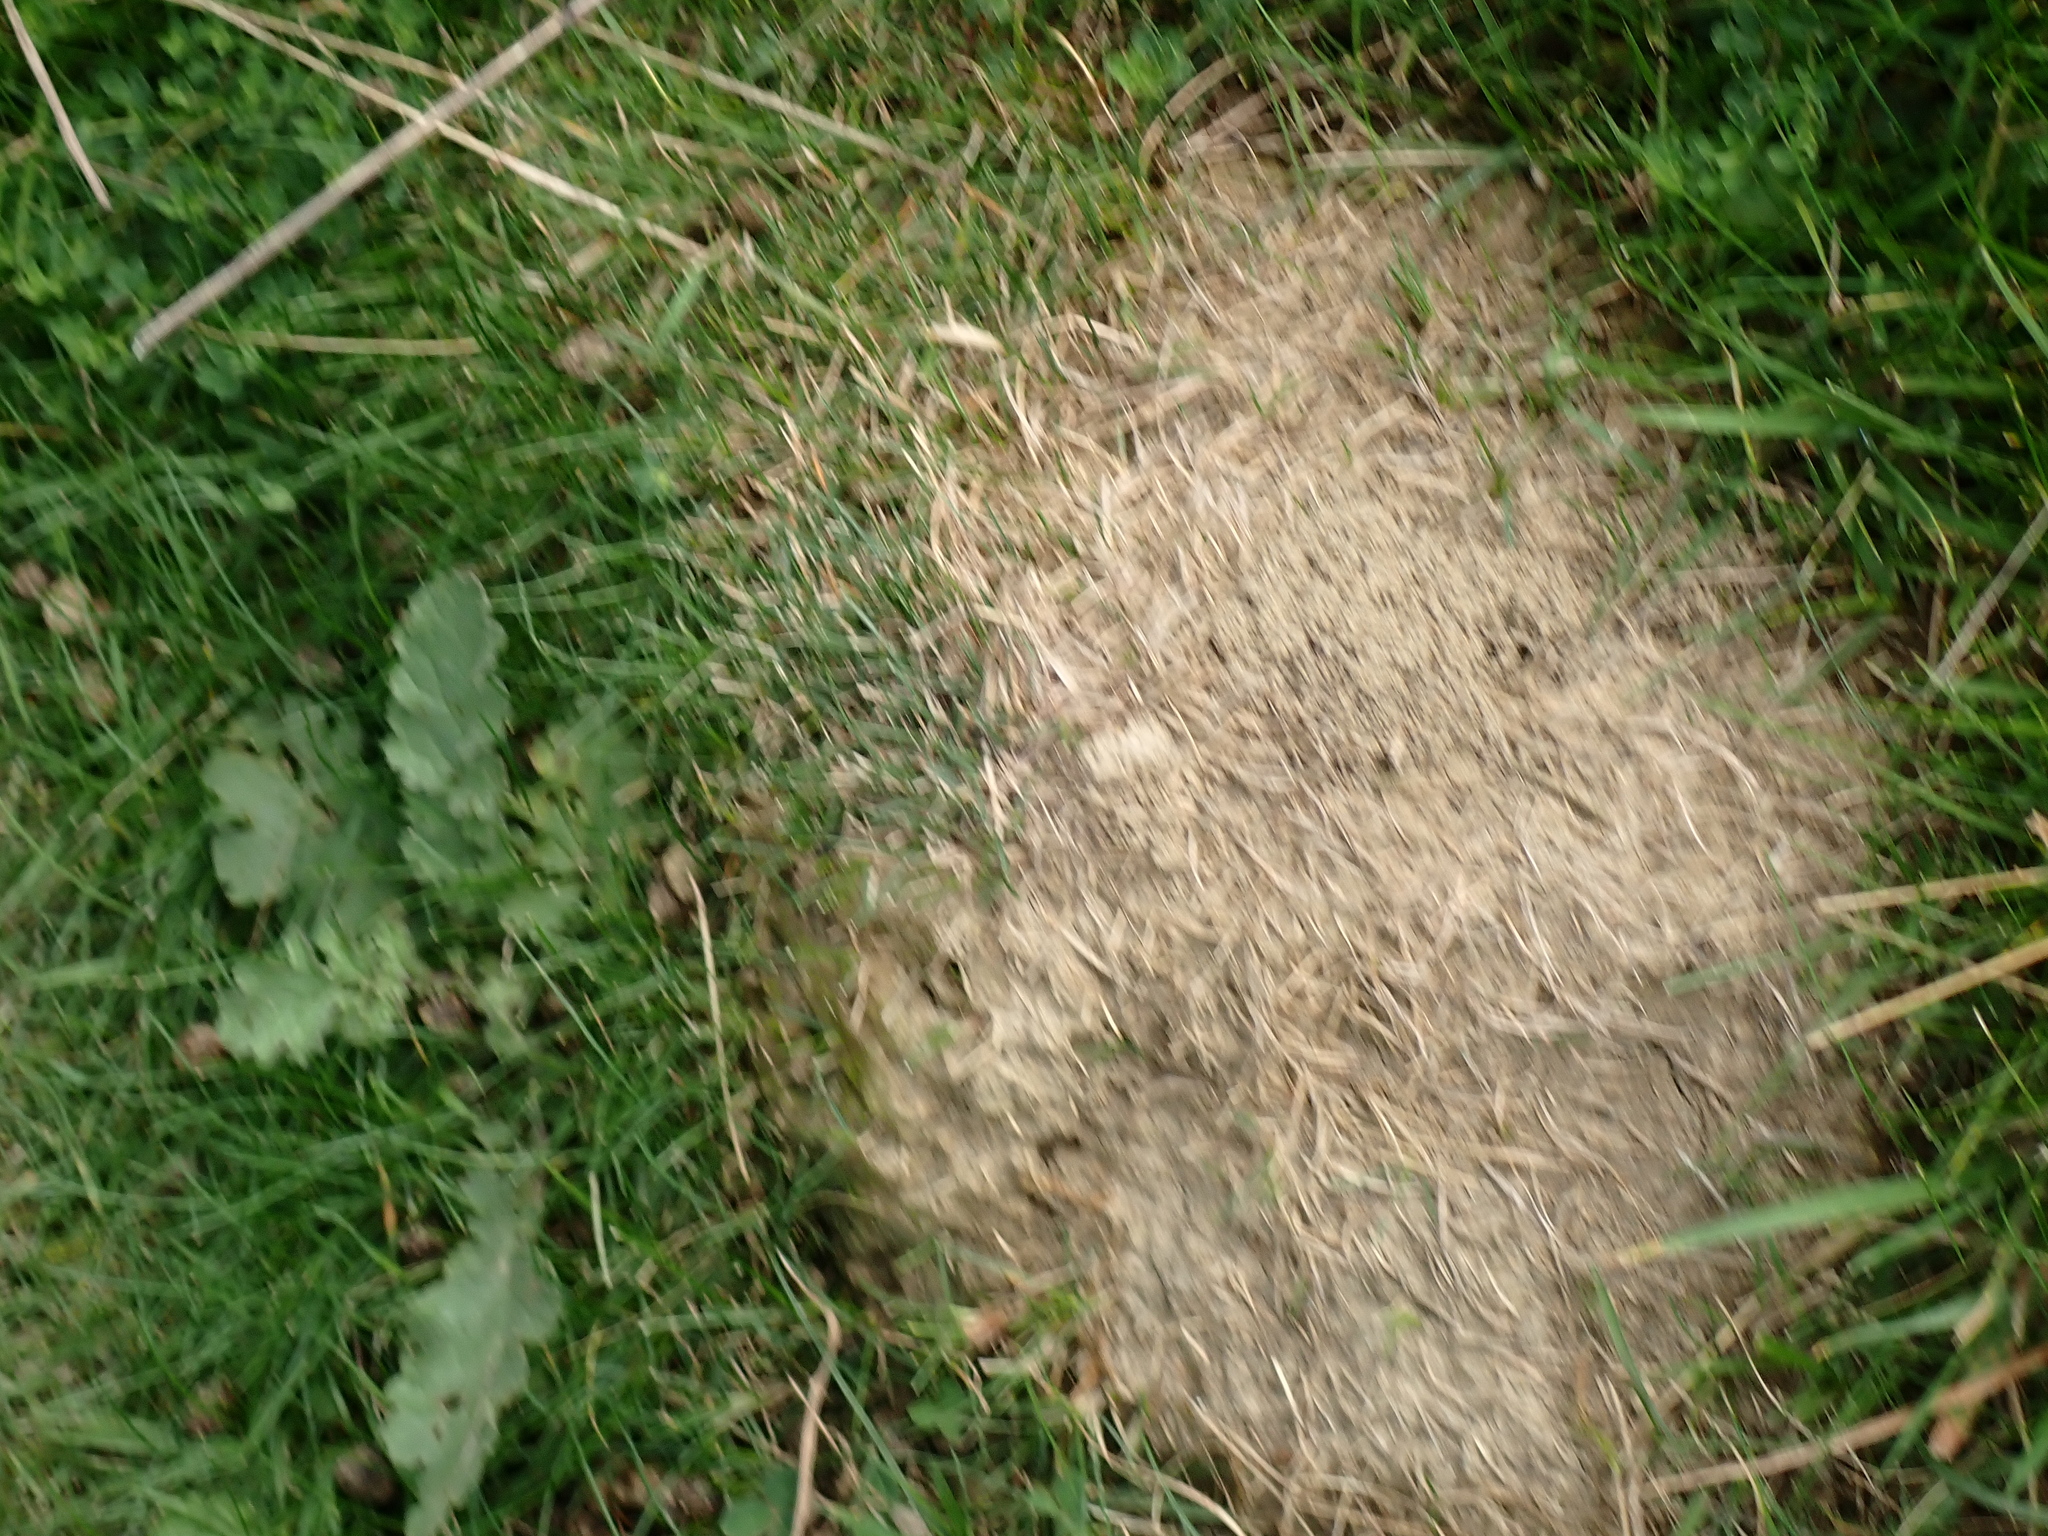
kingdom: Animalia
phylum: Arthropoda
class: Insecta
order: Hymenoptera
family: Formicidae
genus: Lasius
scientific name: Lasius flavus
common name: Blond field ant
